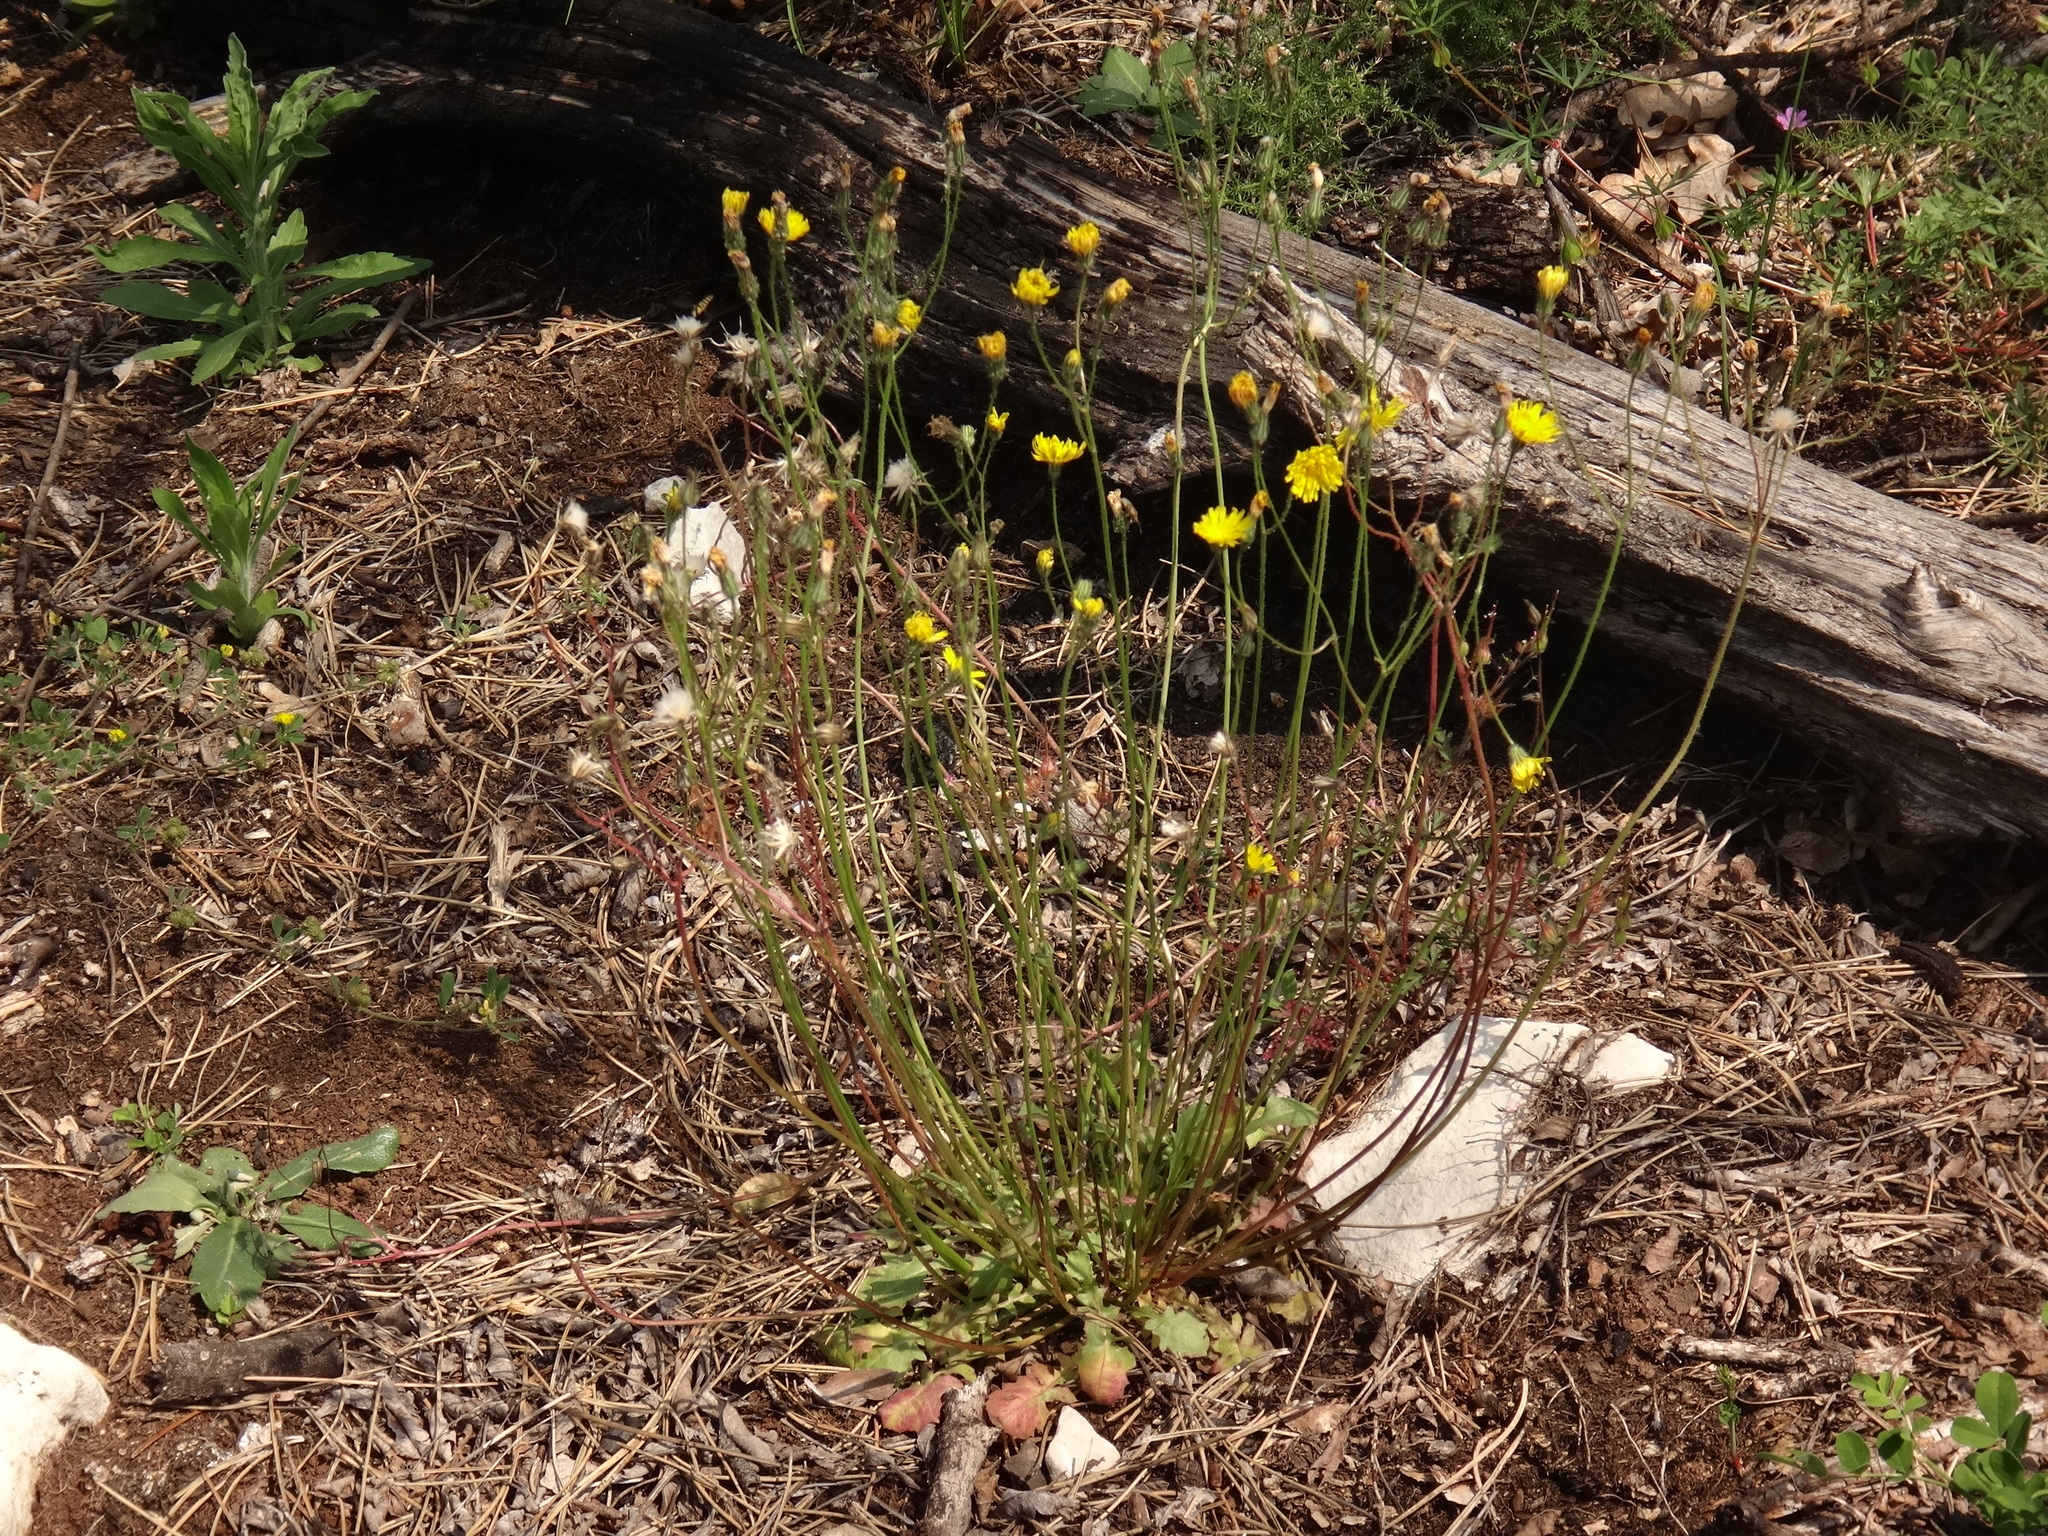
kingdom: Plantae
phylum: Tracheophyta
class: Magnoliopsida
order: Asterales
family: Asteraceae
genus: Crepis
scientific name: Crepis sancta
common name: Hawk's-beard
